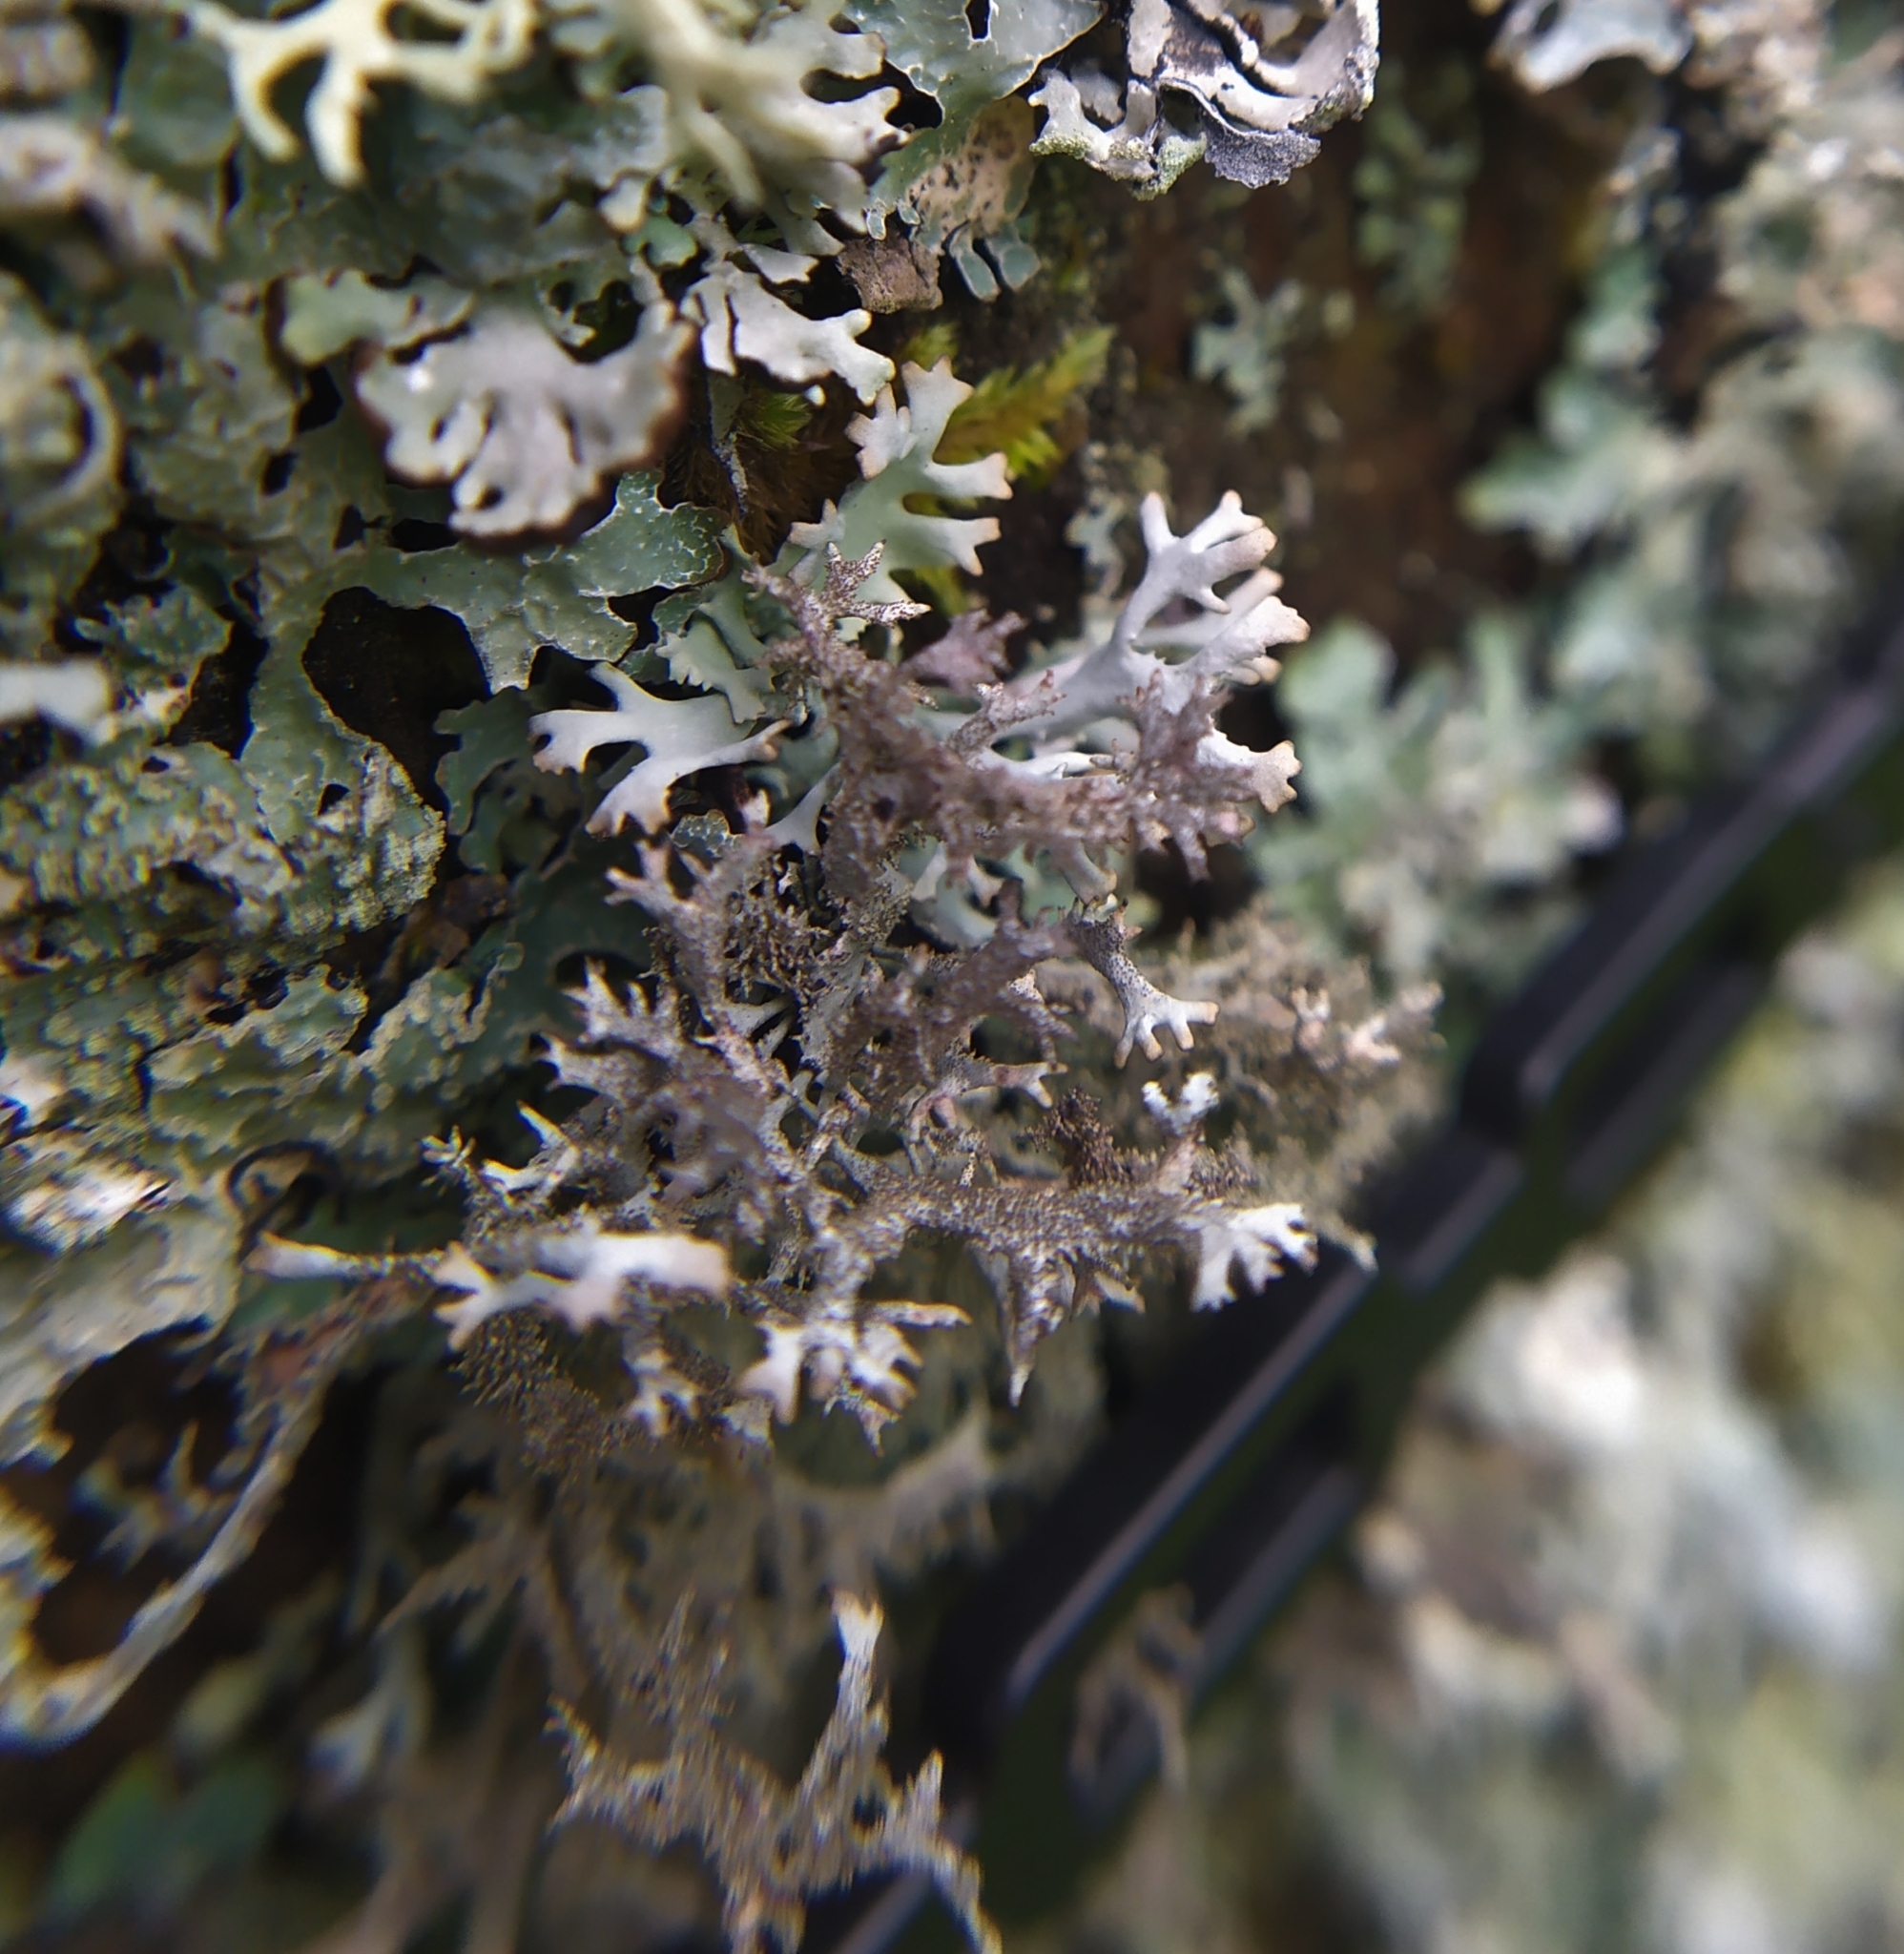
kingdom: Fungi
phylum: Ascomycota
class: Lecanoromycetes
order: Lecanorales
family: Parmeliaceae
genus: Pseudevernia
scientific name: Pseudevernia furfuracea
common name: Tree moss
